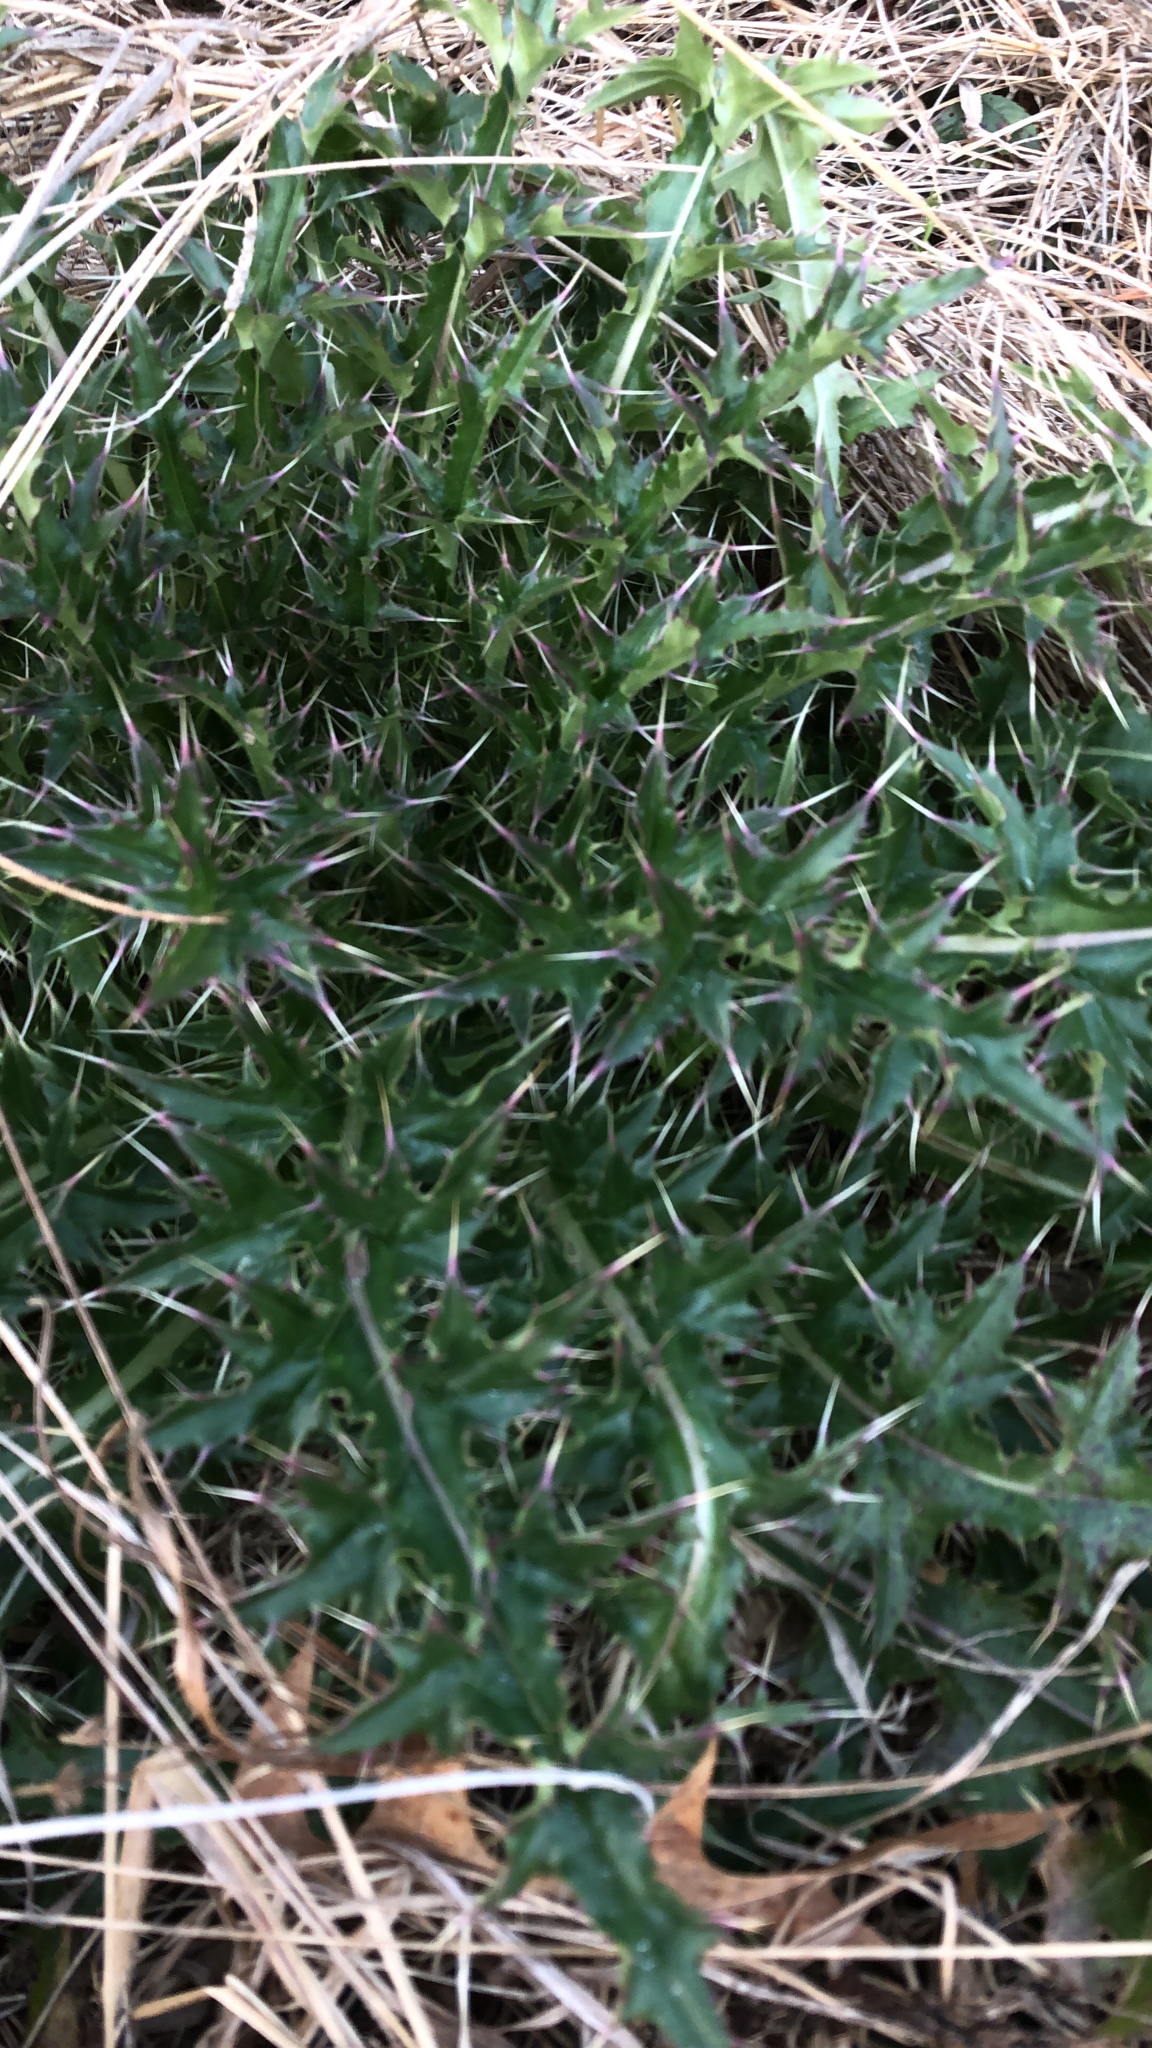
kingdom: Plantae
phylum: Tracheophyta
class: Magnoliopsida
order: Asterales
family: Asteraceae
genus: Cirsium
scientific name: Cirsium horridulum
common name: Bristly thistle
